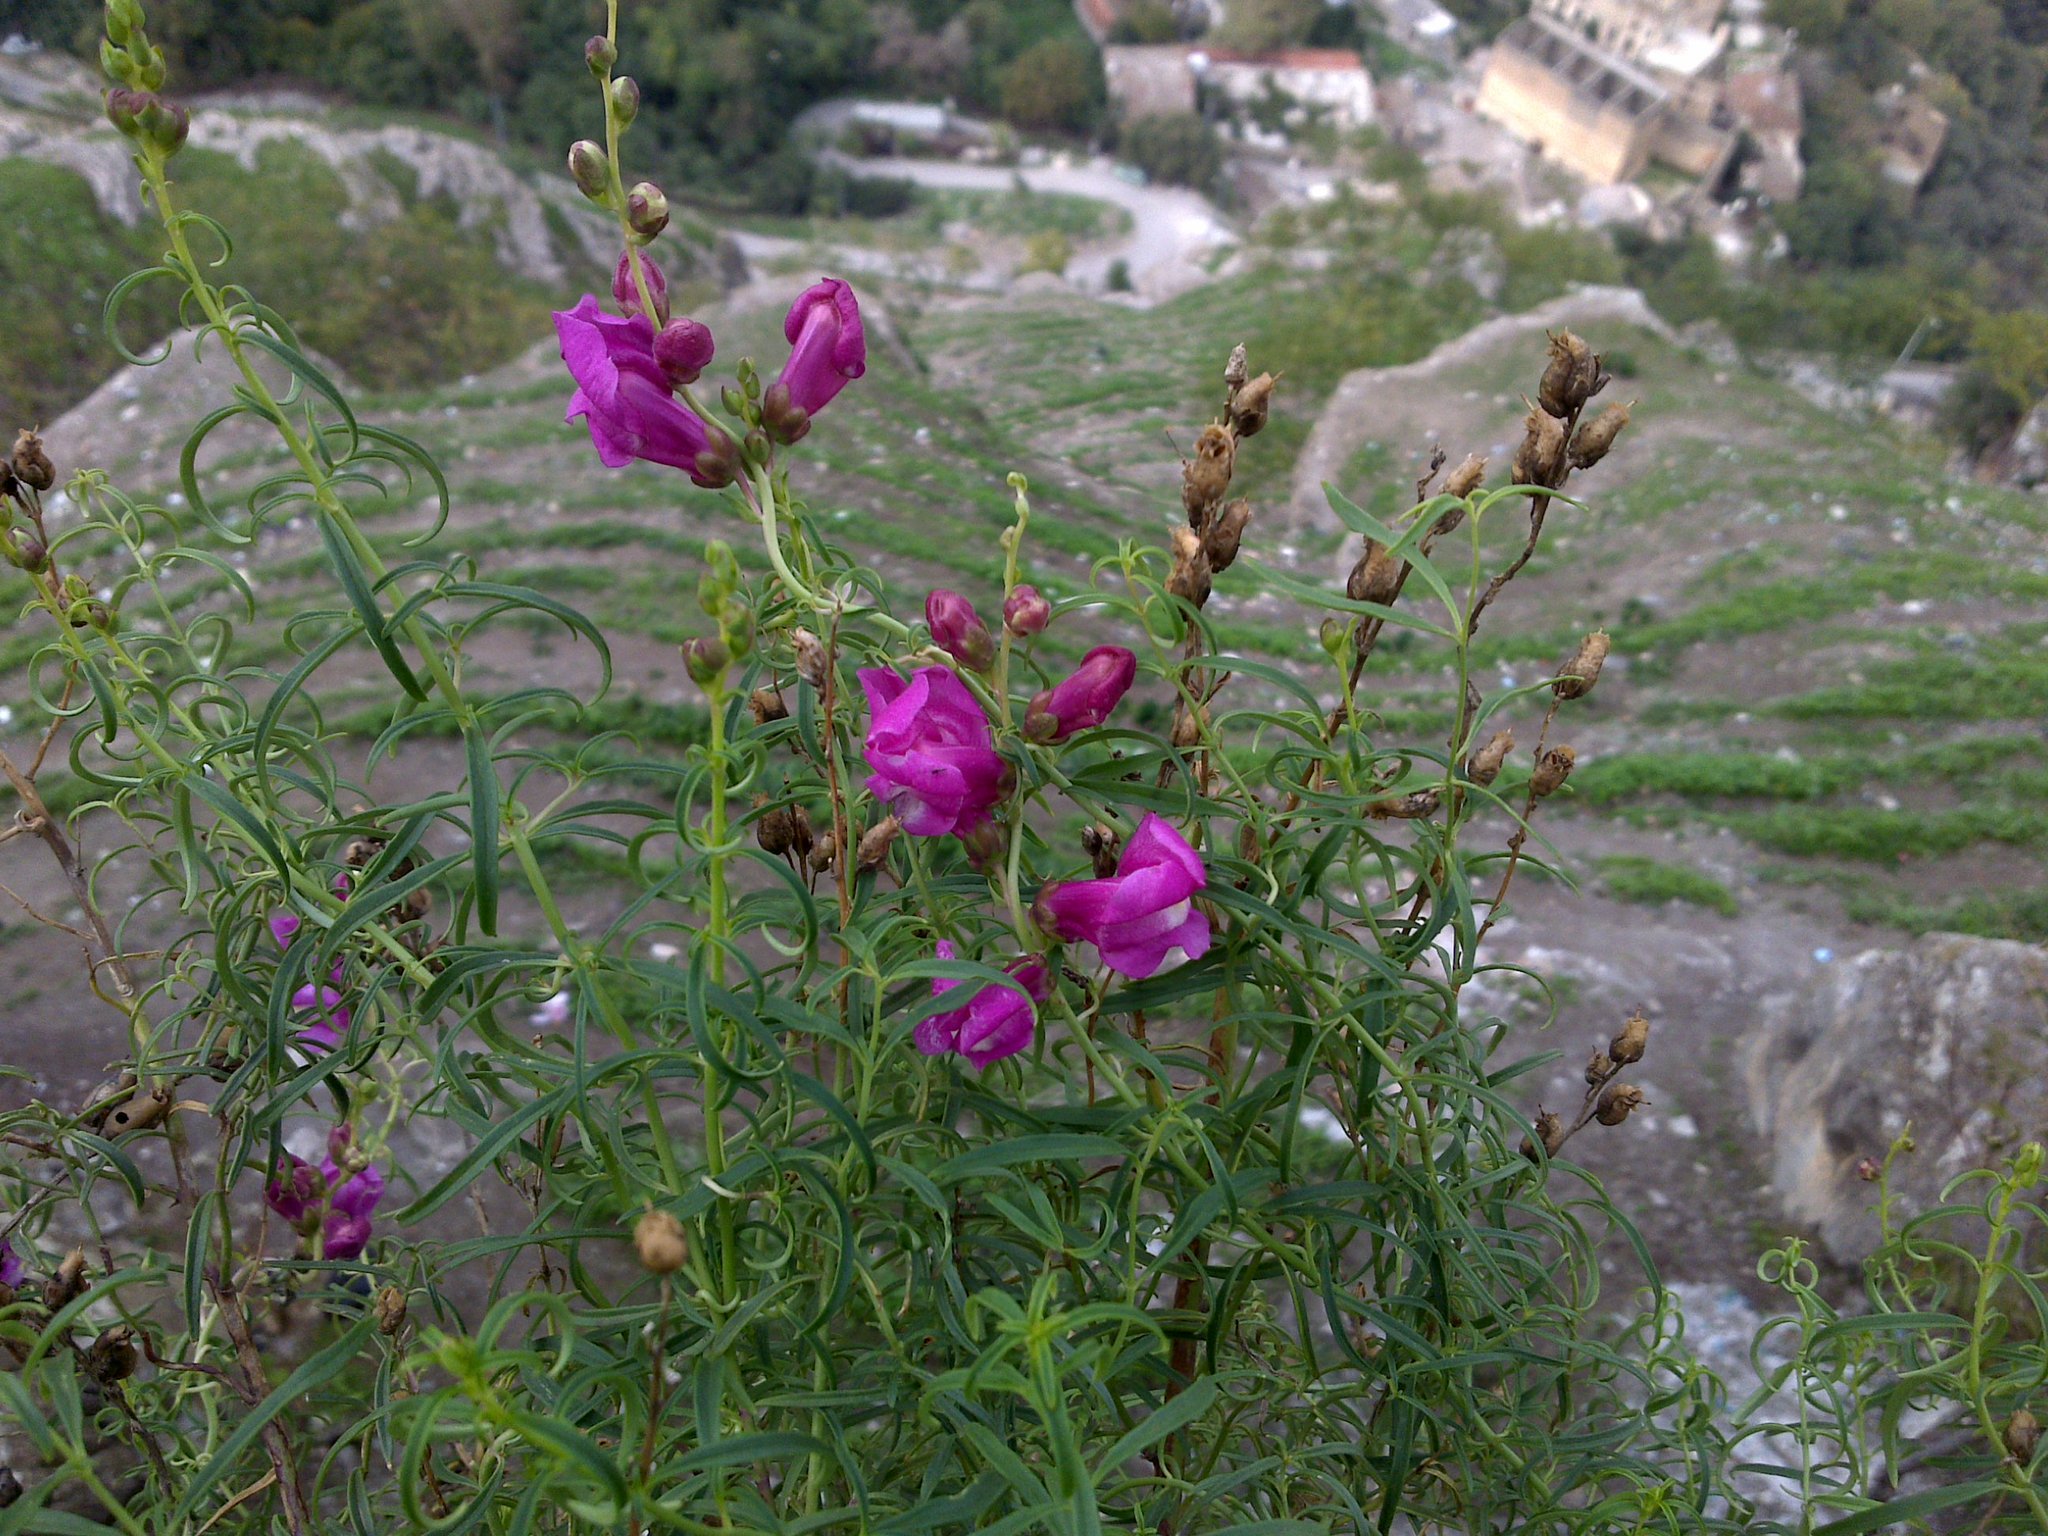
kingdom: Plantae
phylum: Tracheophyta
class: Magnoliopsida
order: Lamiales
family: Plantaginaceae
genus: Antirrhinum
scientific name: Antirrhinum tortuosum
